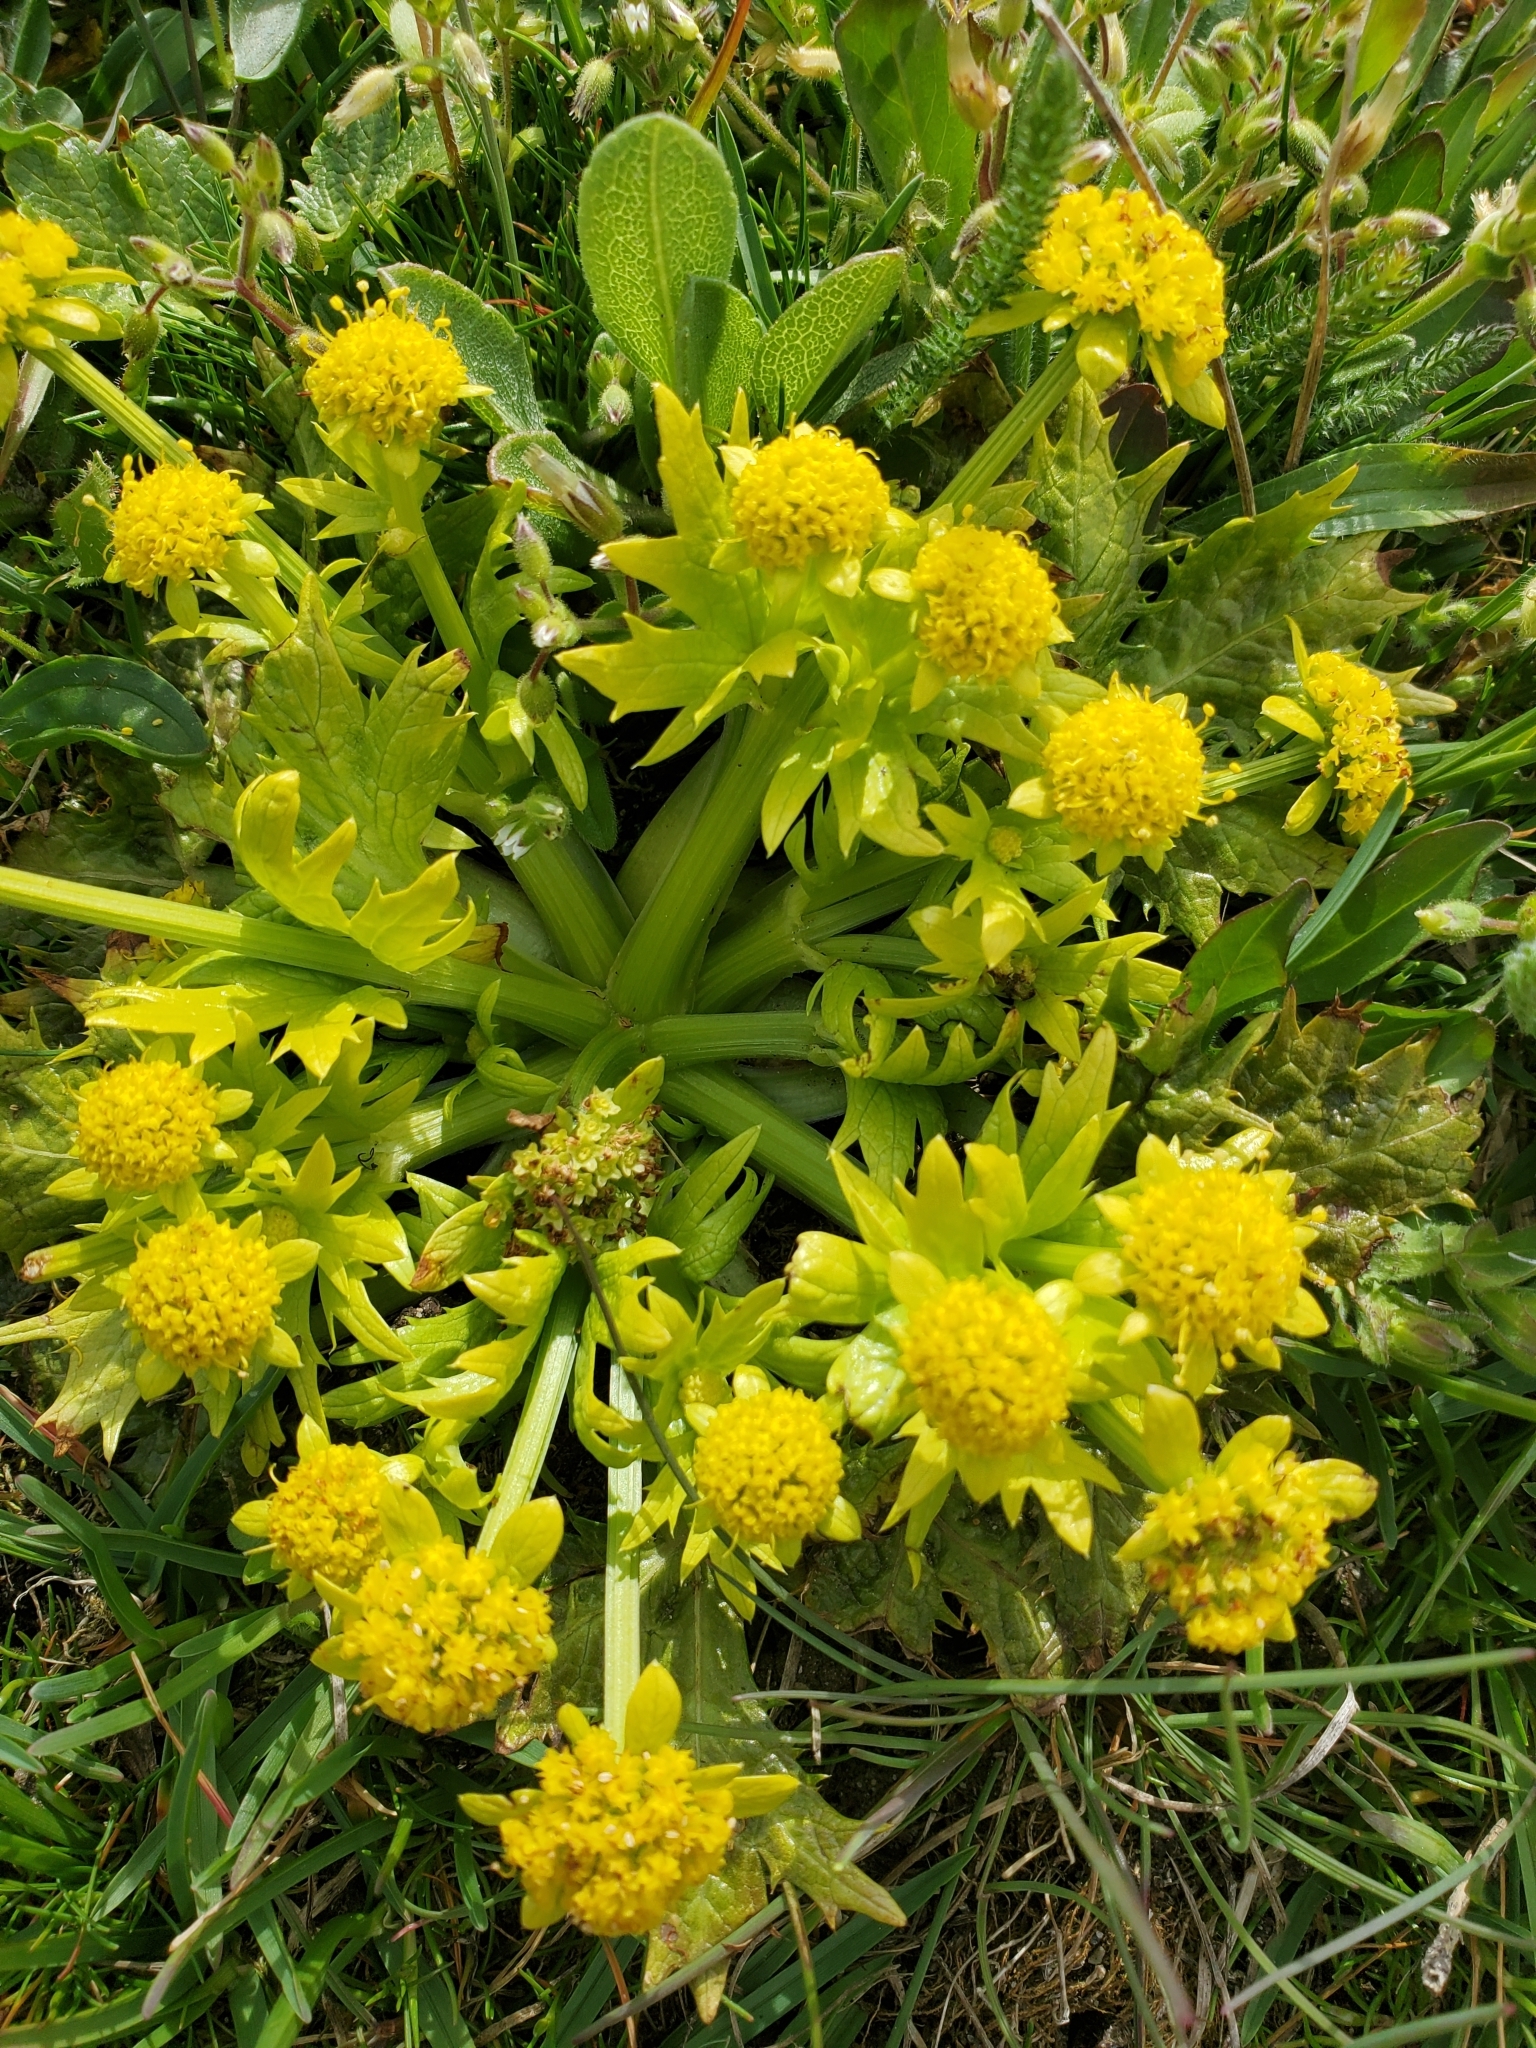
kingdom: Plantae
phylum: Tracheophyta
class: Magnoliopsida
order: Apiales
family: Apiaceae
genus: Sanicula
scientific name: Sanicula arctopoides
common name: Footsteps-of-spring
